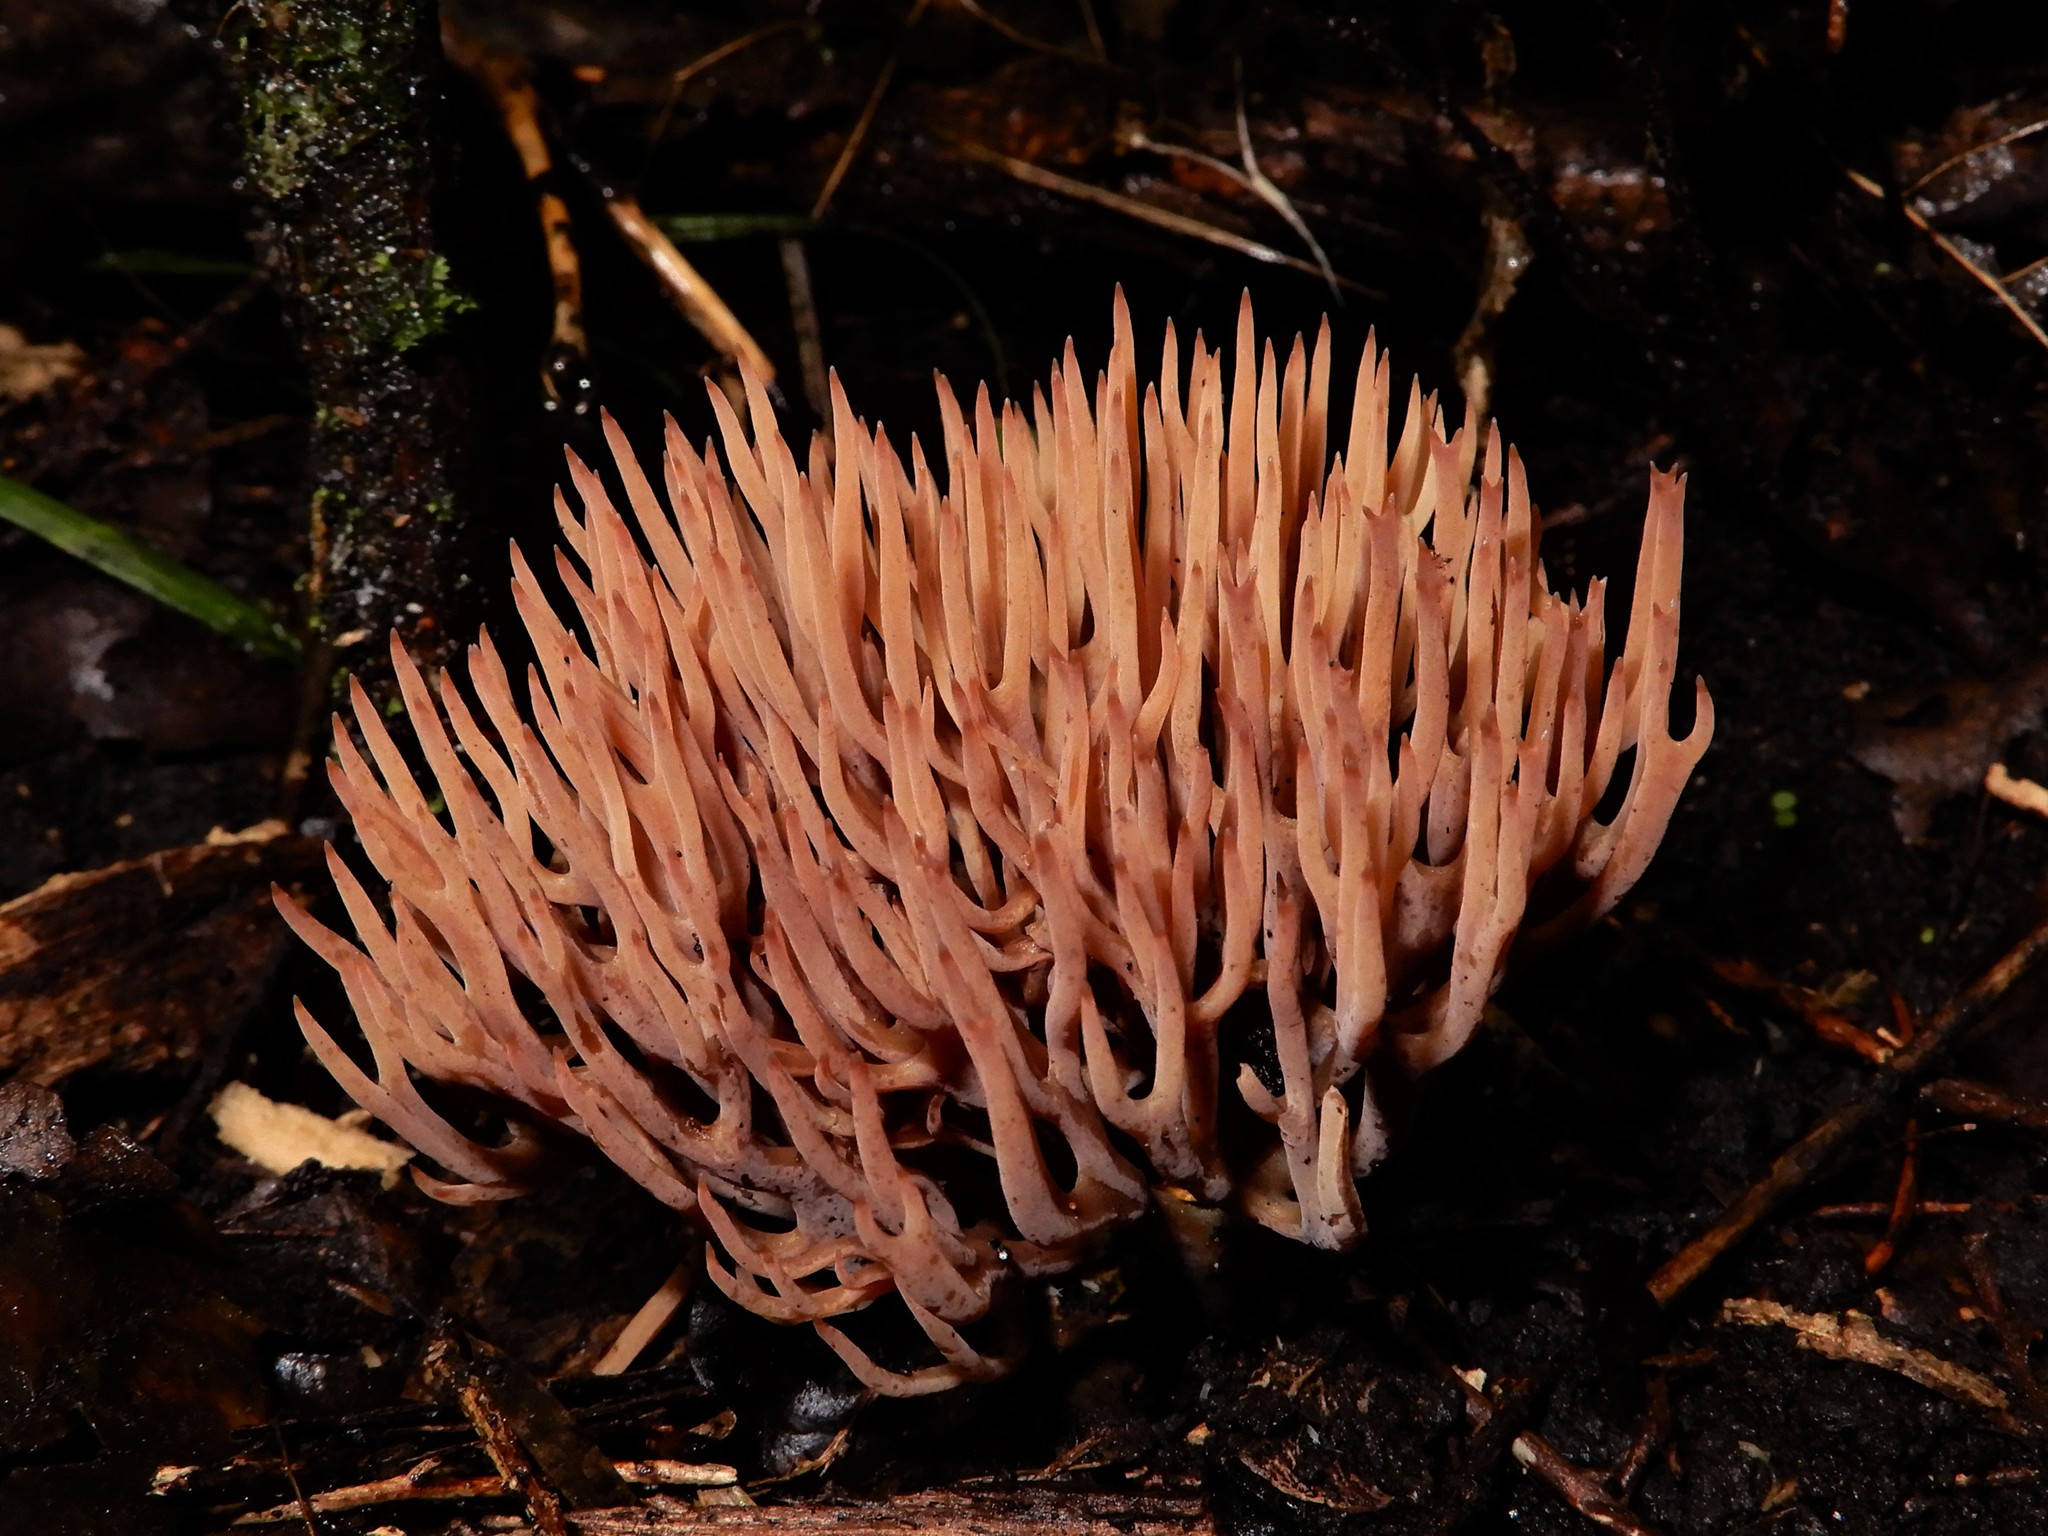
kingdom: Fungi
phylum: Basidiomycota
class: Agaricomycetes
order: Agaricales
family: Clavariaceae
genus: Ramariopsis
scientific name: Ramariopsis
